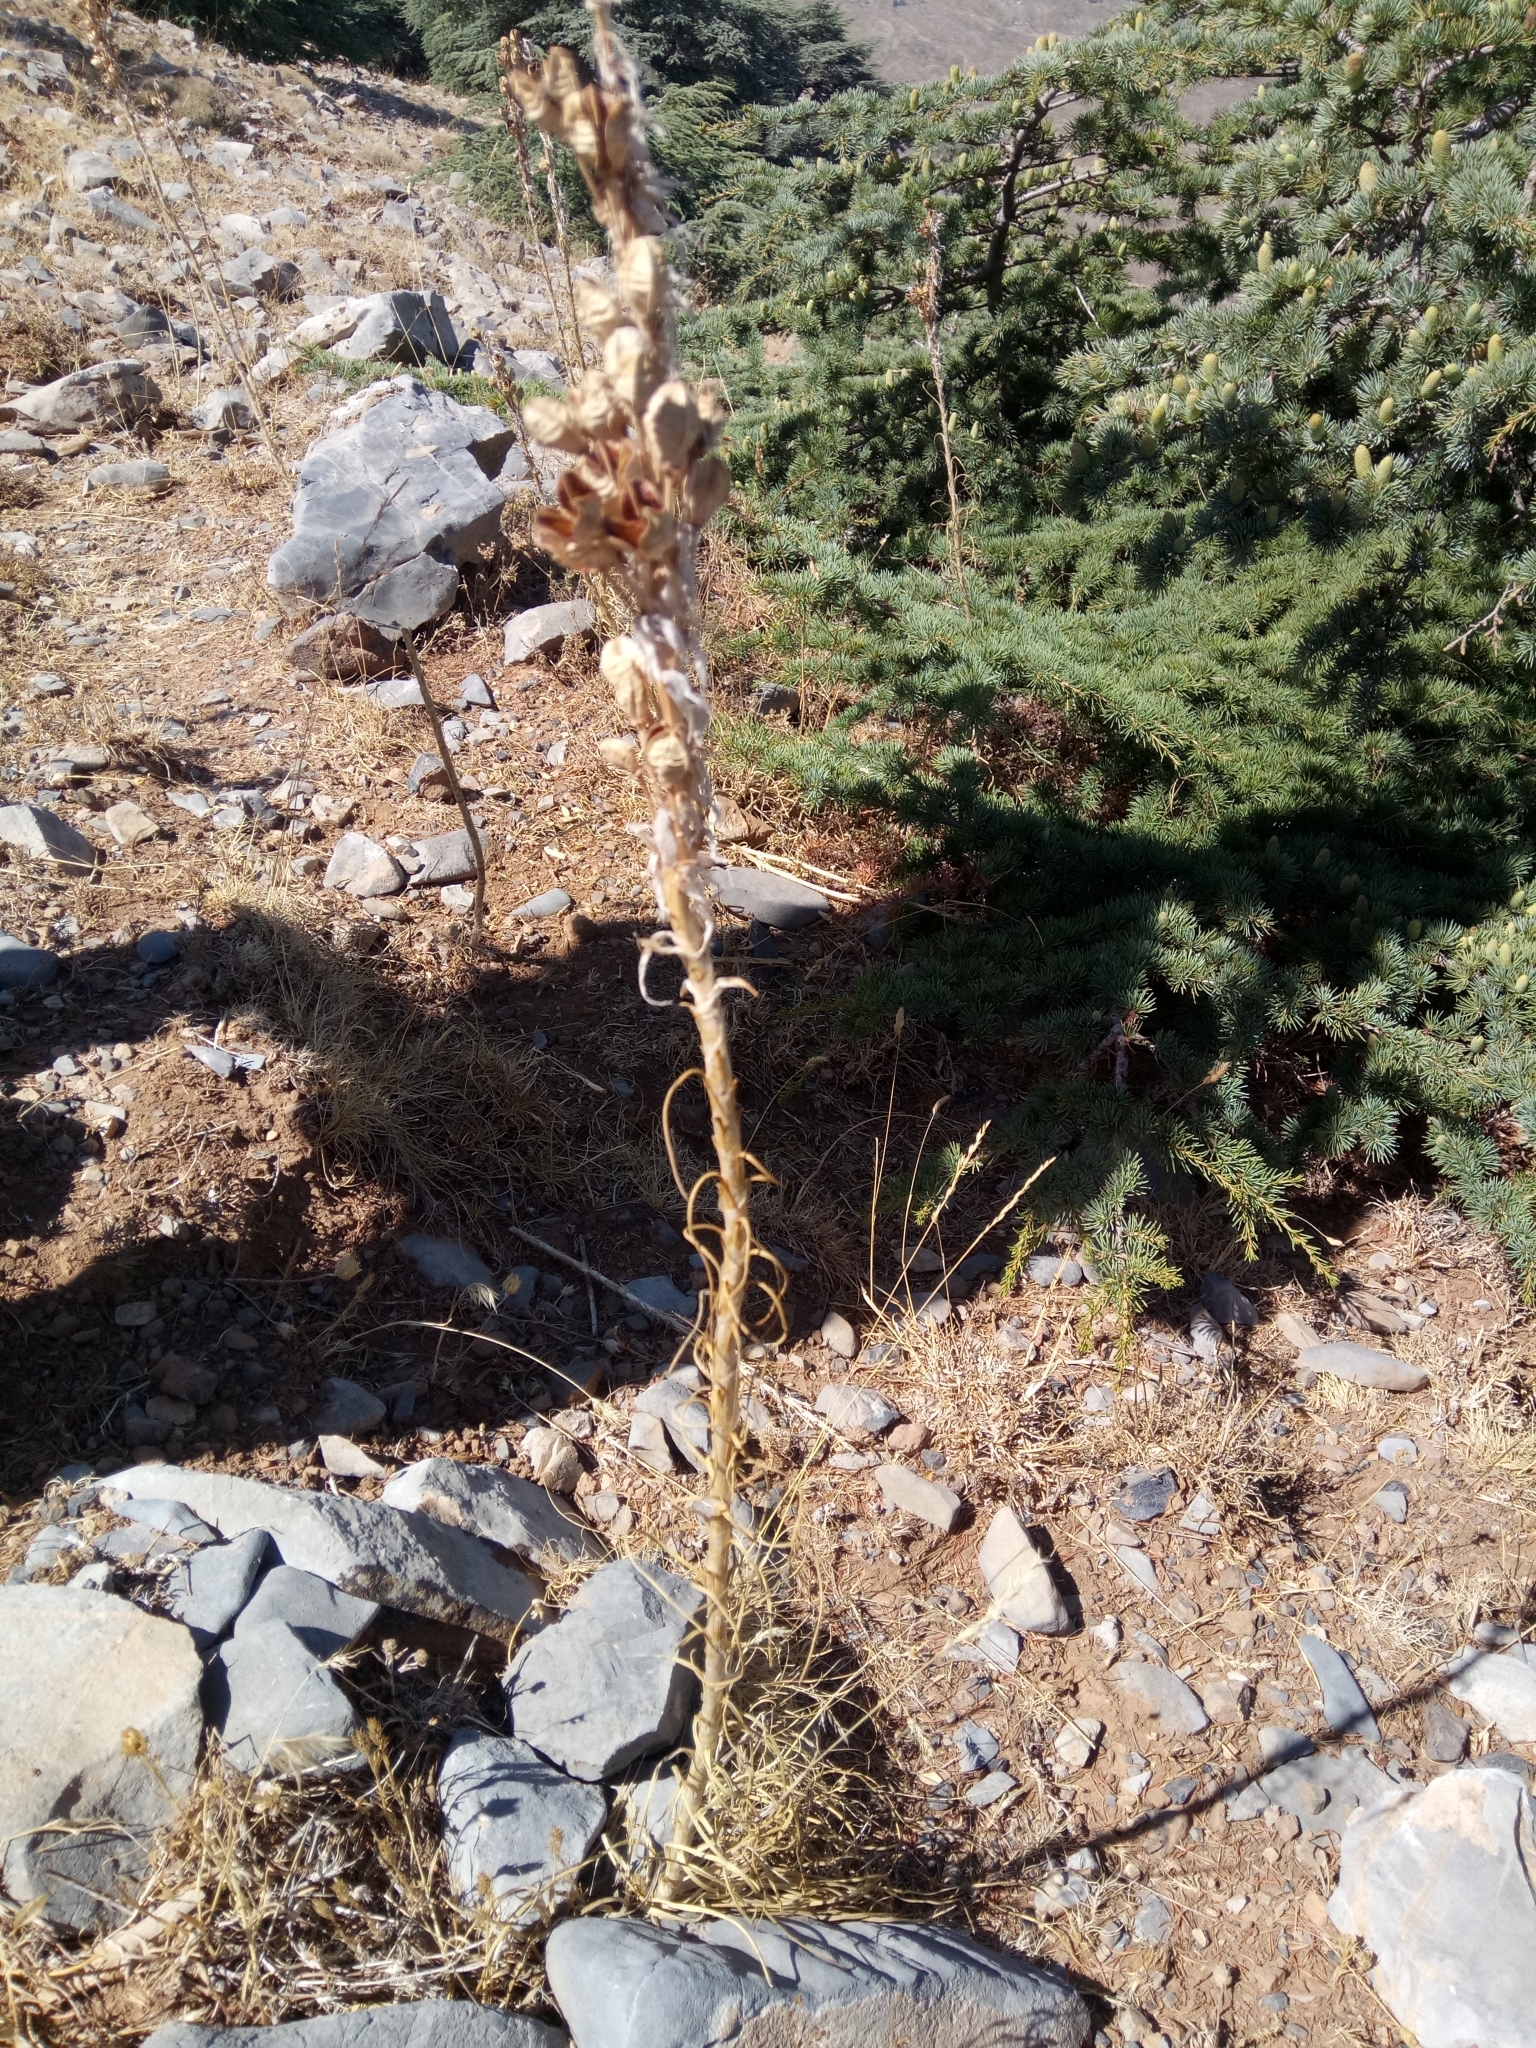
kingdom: Plantae
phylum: Tracheophyta
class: Liliopsida
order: Asparagales
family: Asphodelaceae
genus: Asphodeline
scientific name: Asphodeline lutea
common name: Yellow asphodel
